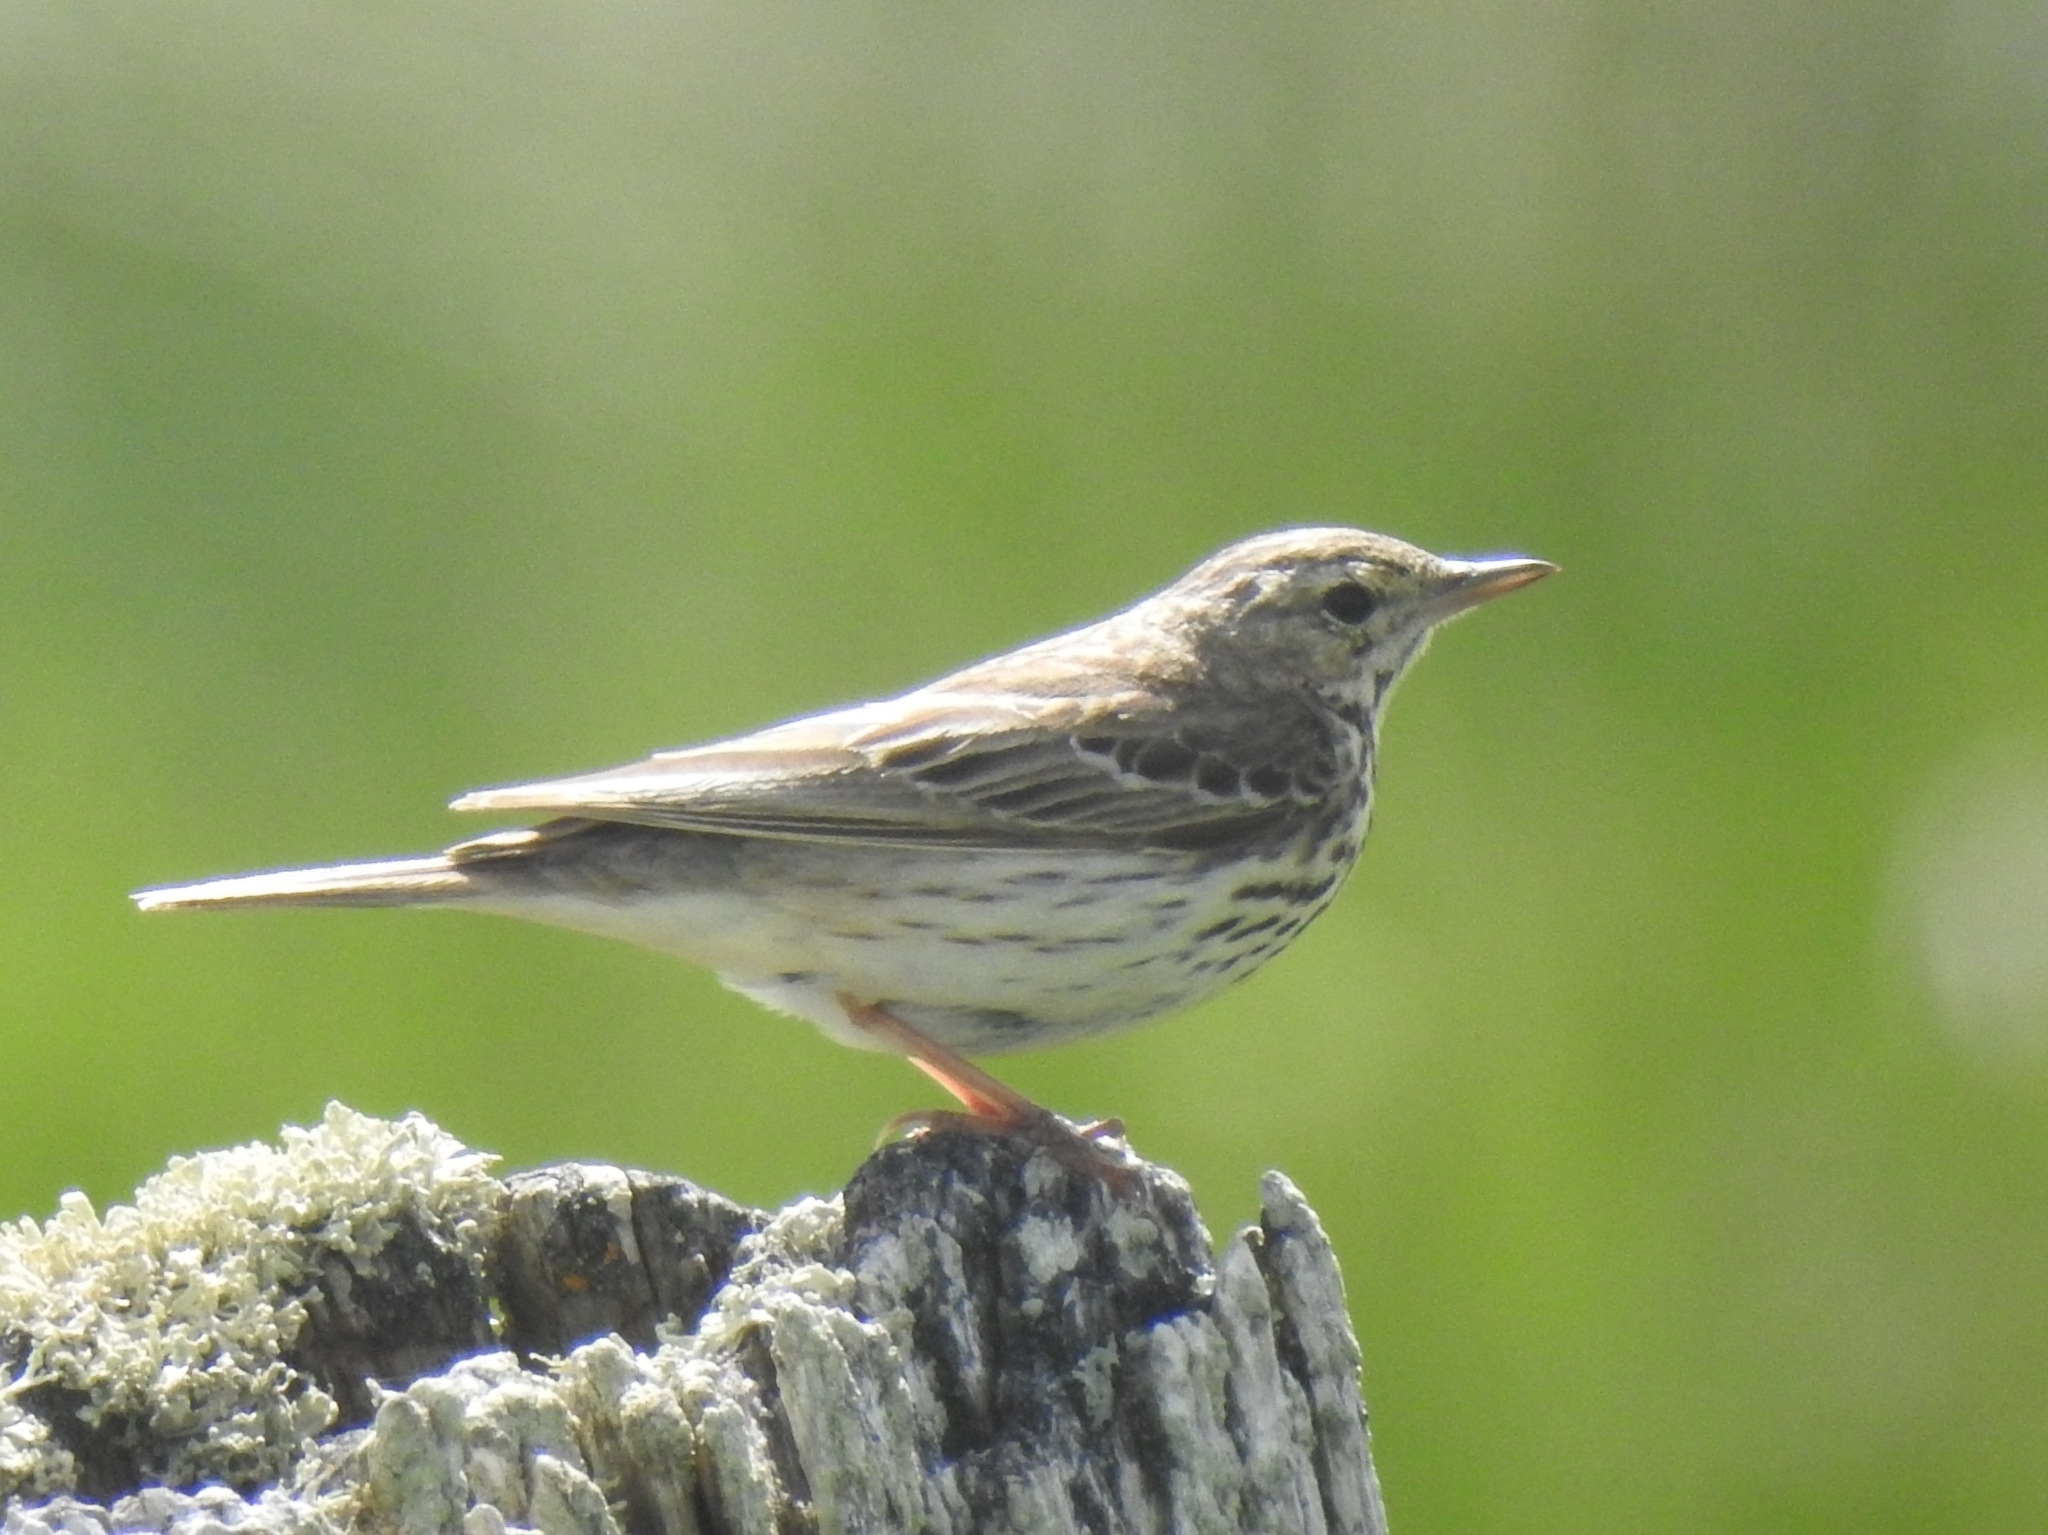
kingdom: Animalia
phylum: Chordata
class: Aves
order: Passeriformes
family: Motacillidae
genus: Anthus
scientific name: Anthus trivialis
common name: Tree pipit
